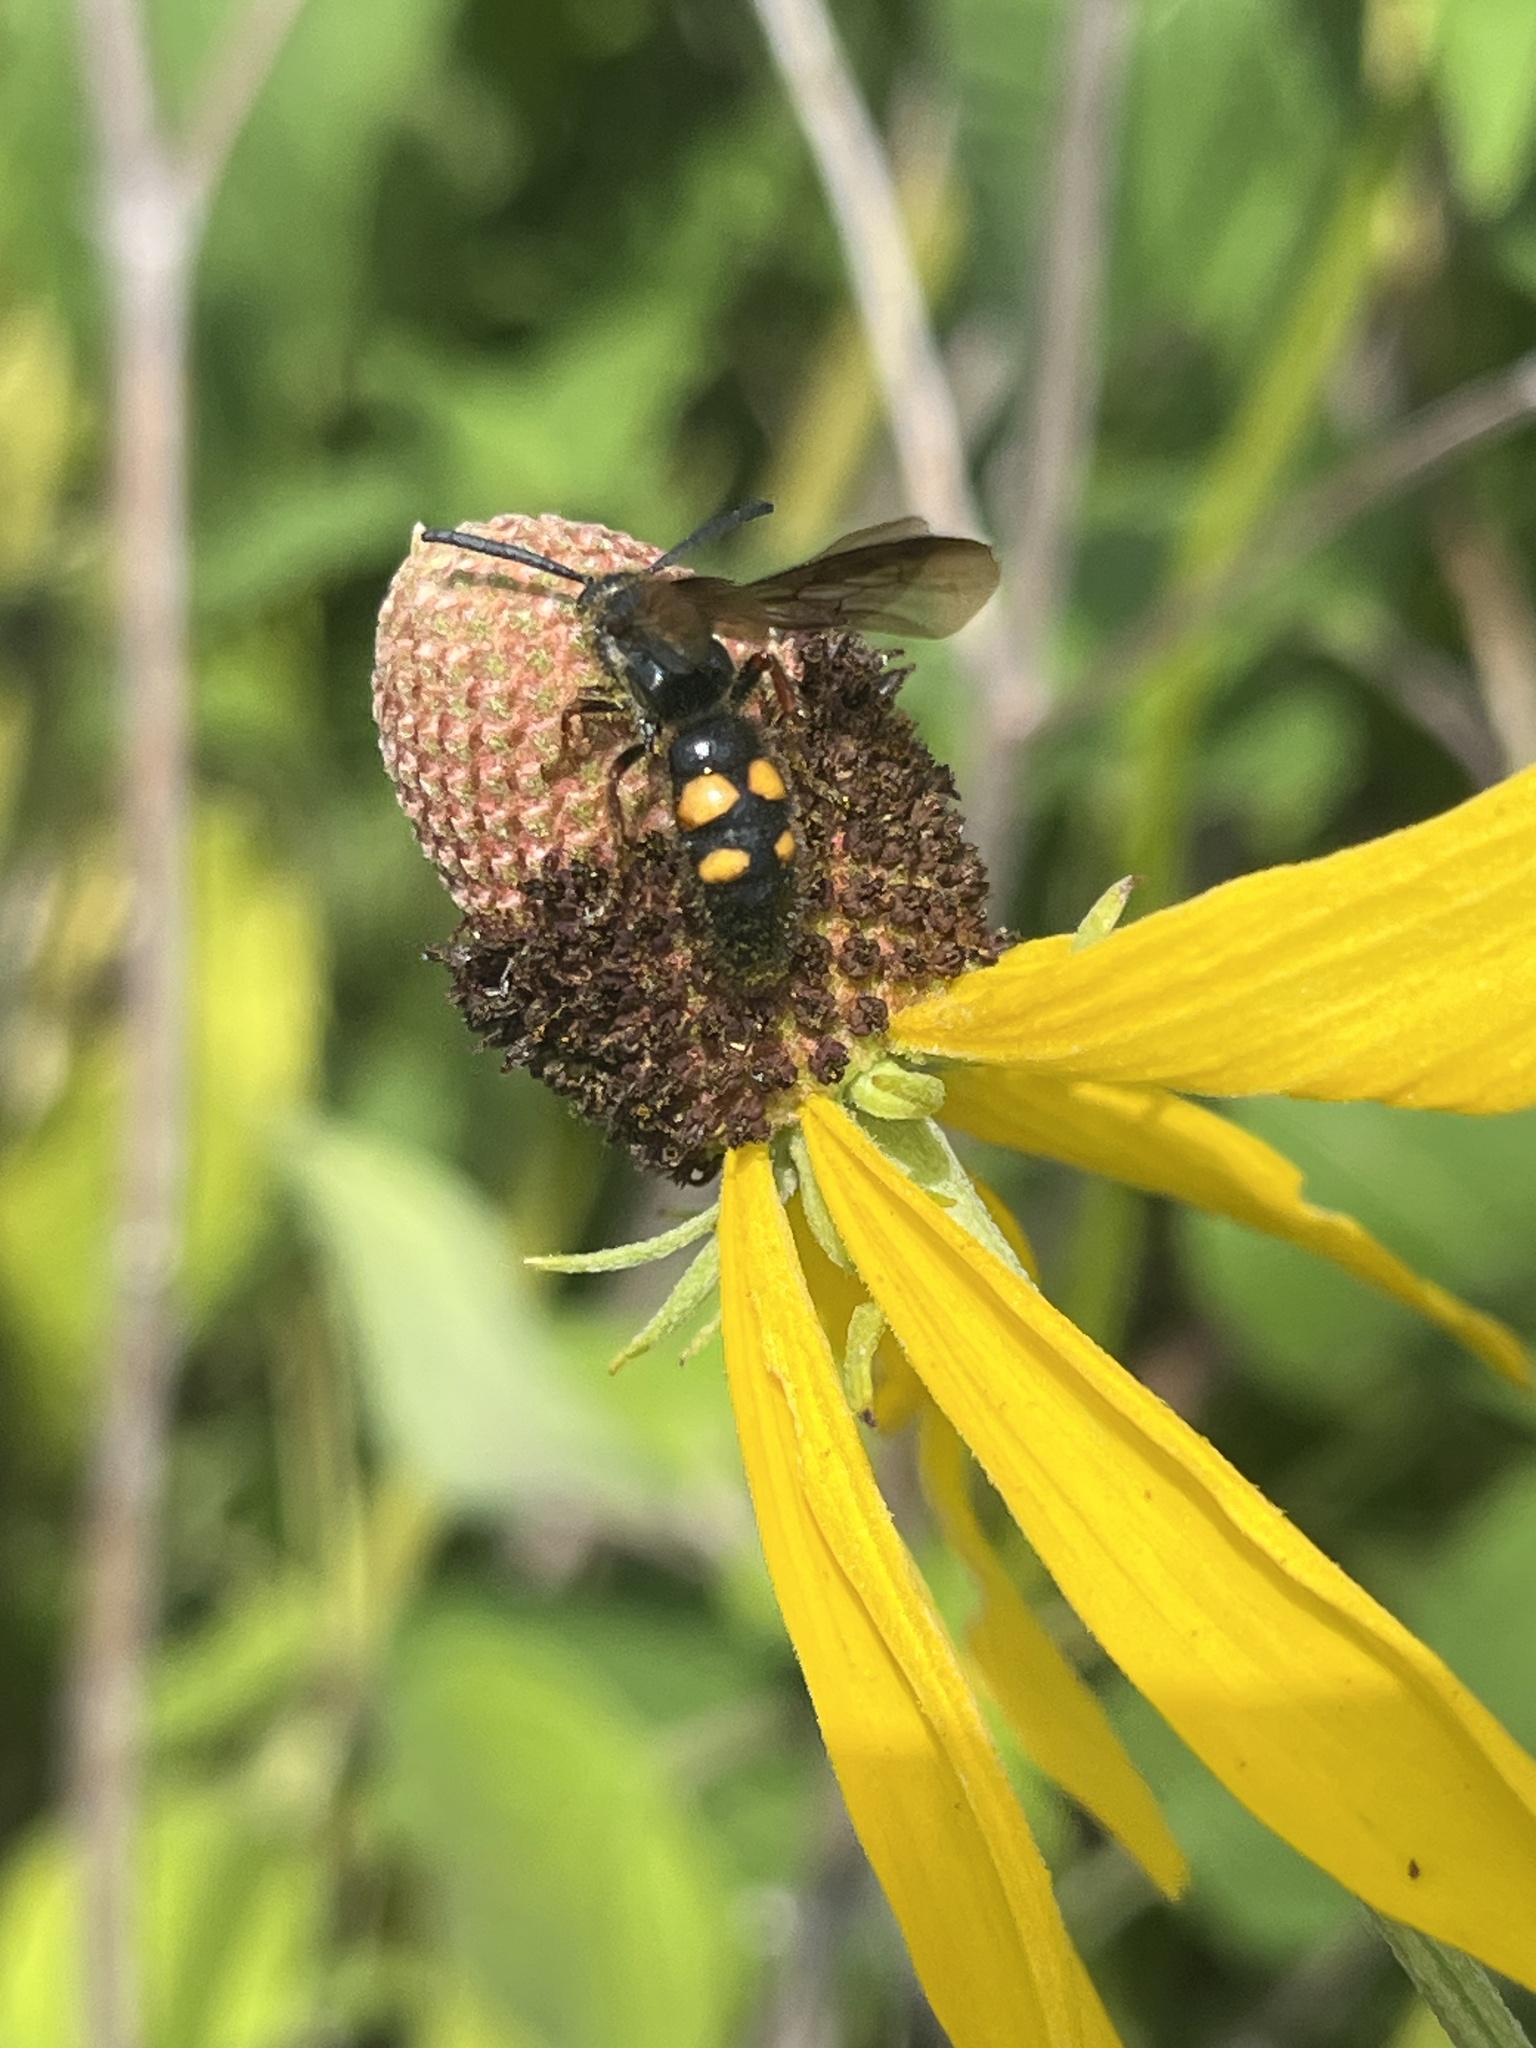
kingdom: Animalia
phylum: Arthropoda
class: Insecta
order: Hymenoptera
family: Scoliidae
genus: Scolia
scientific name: Scolia nobilitata
